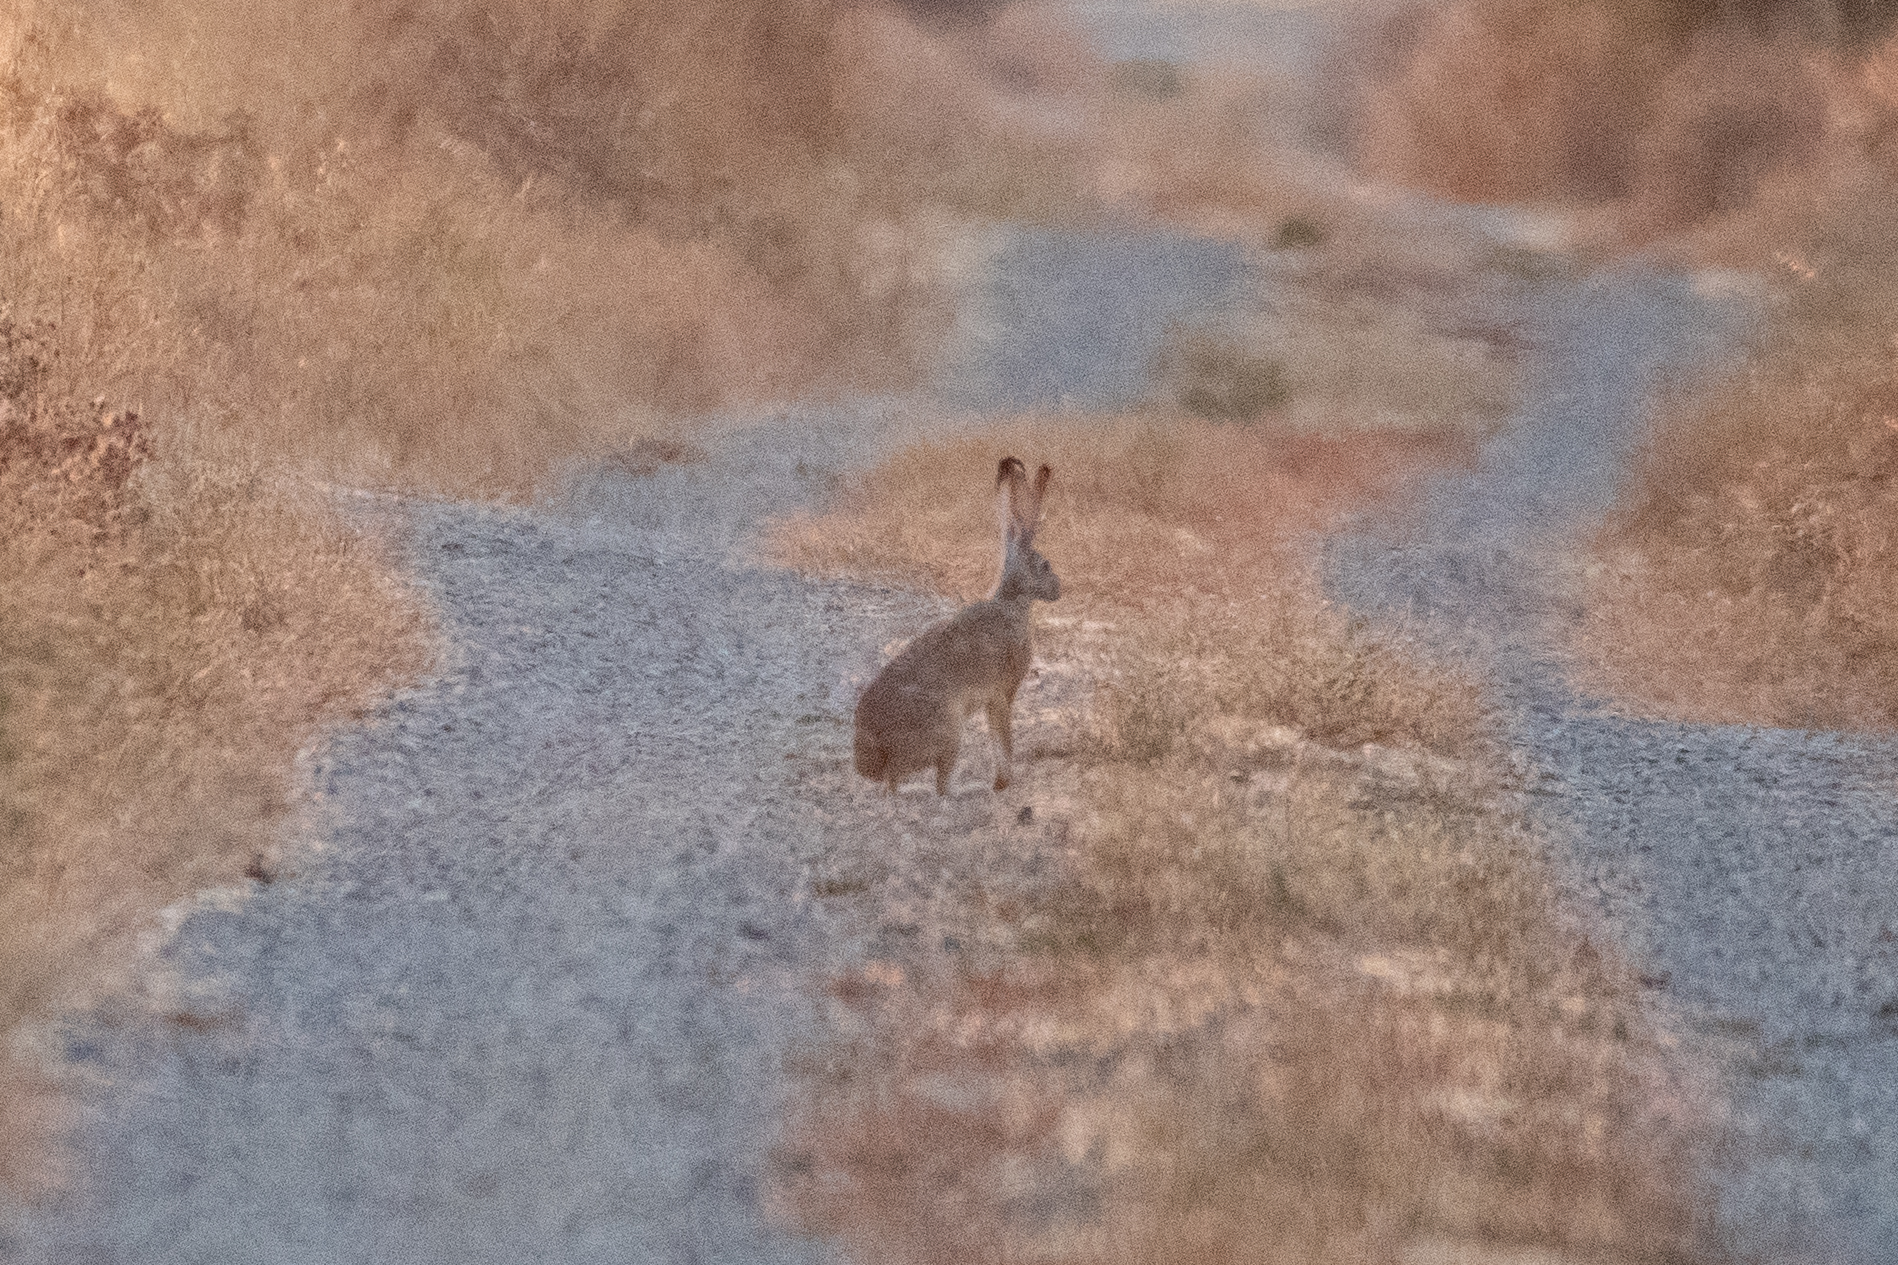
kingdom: Animalia
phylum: Chordata
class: Mammalia
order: Lagomorpha
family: Leporidae
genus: Lepus
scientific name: Lepus californicus
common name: Black-tailed jackrabbit
